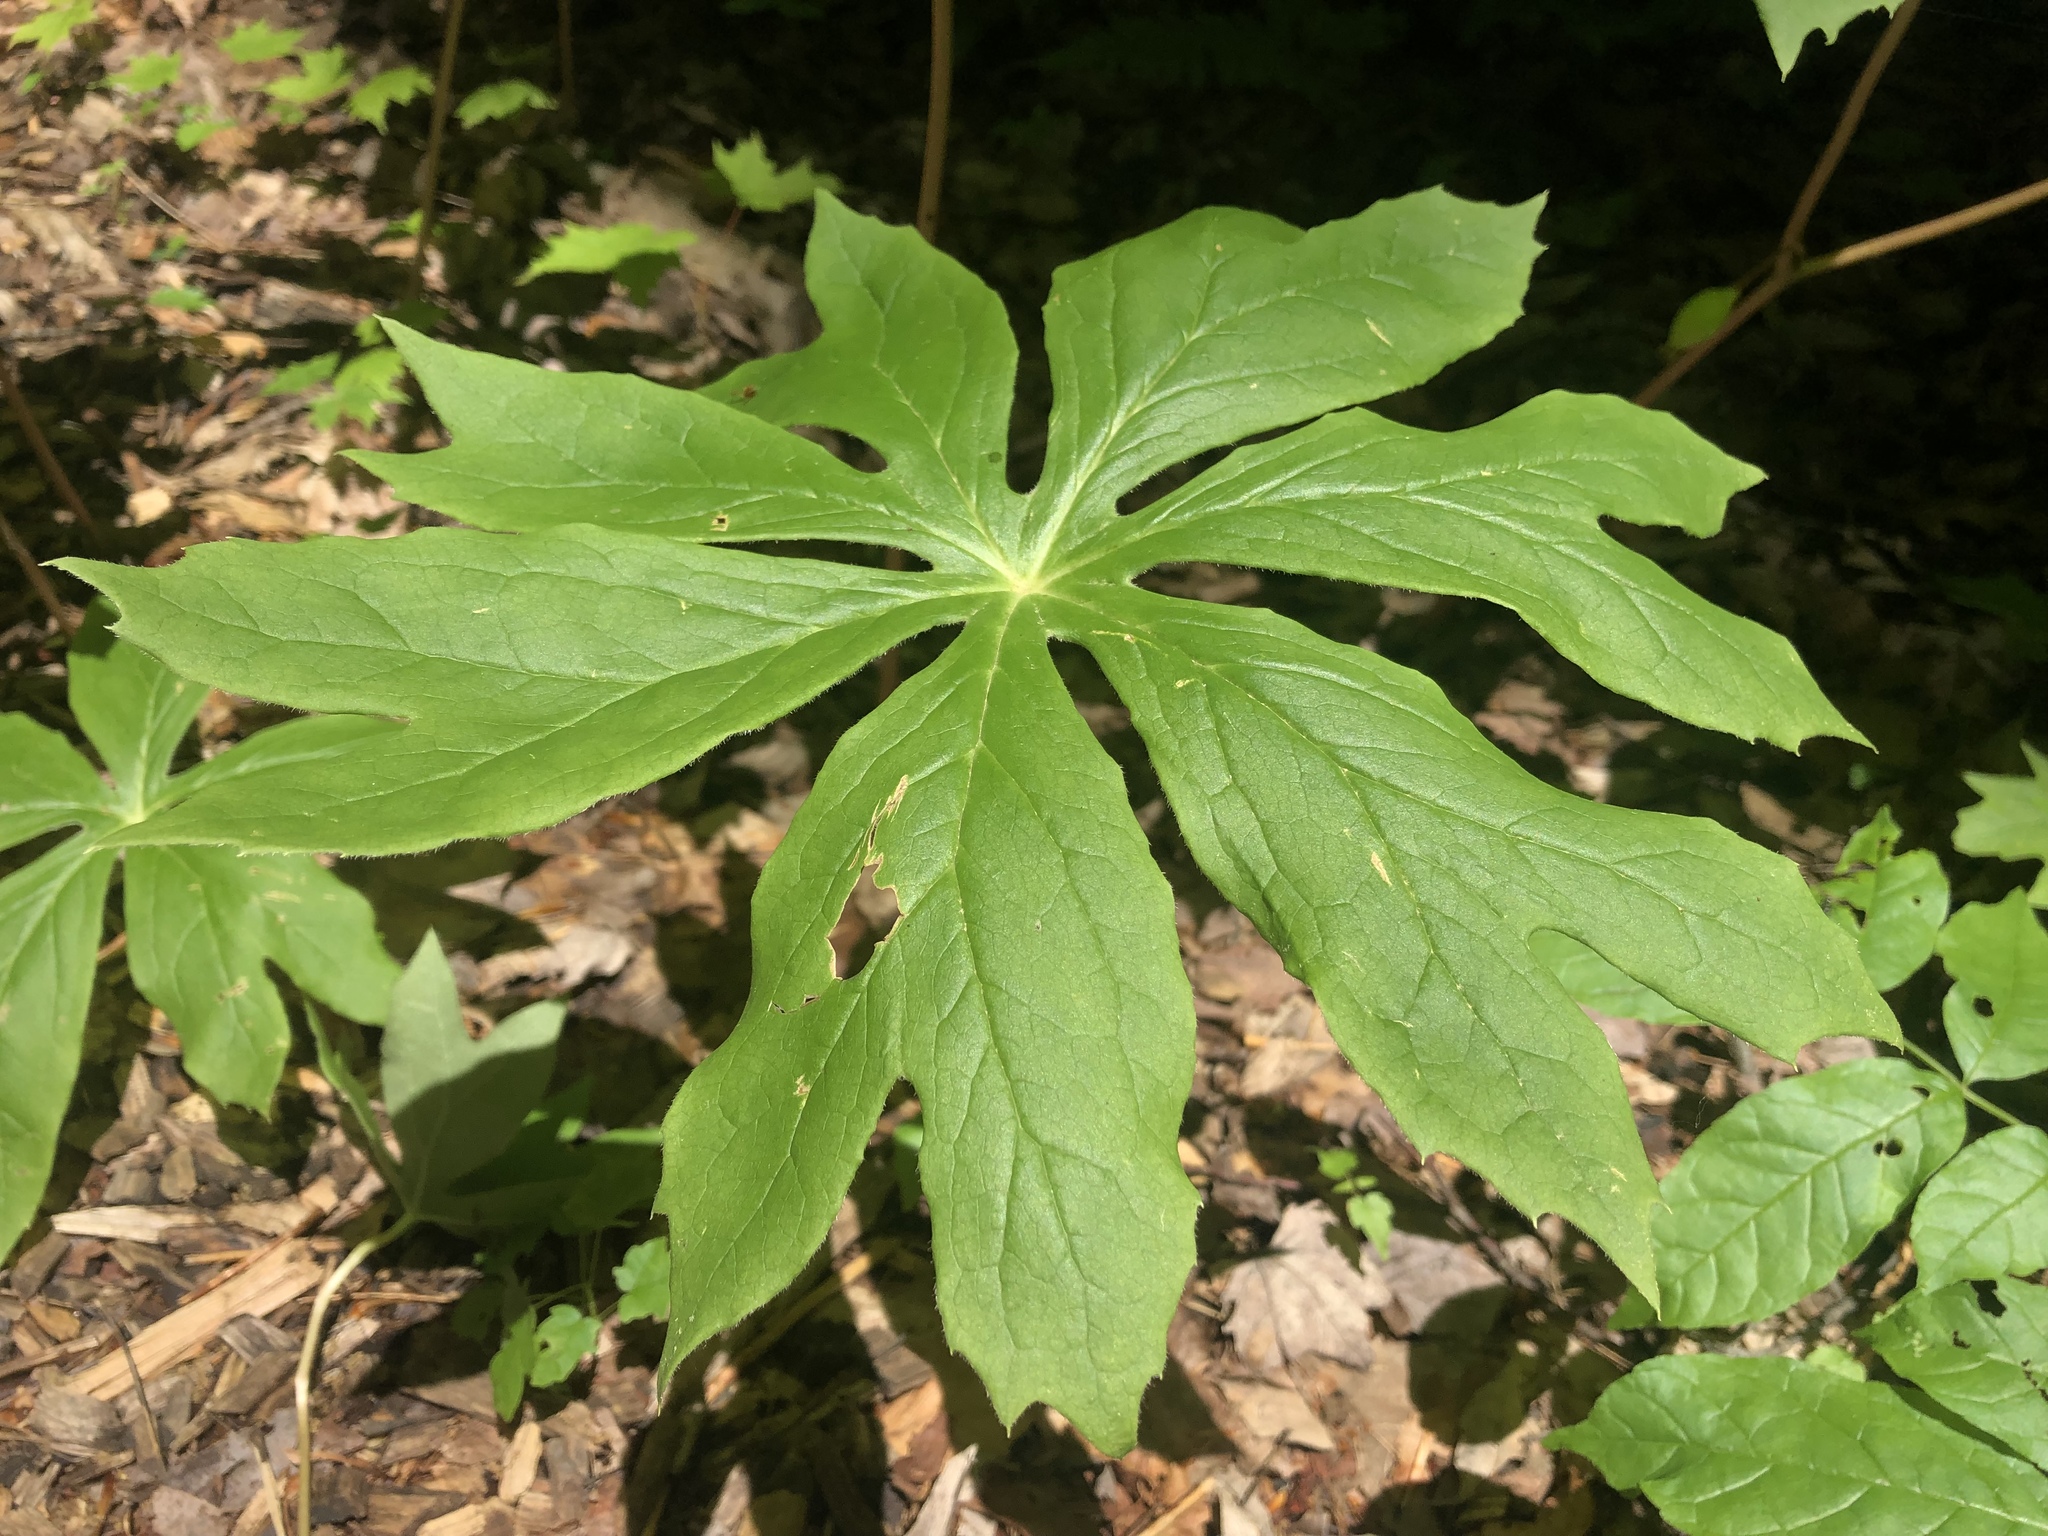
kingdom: Plantae
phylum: Tracheophyta
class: Magnoliopsida
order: Ranunculales
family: Berberidaceae
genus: Podophyllum
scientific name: Podophyllum peltatum
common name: Wild mandrake
